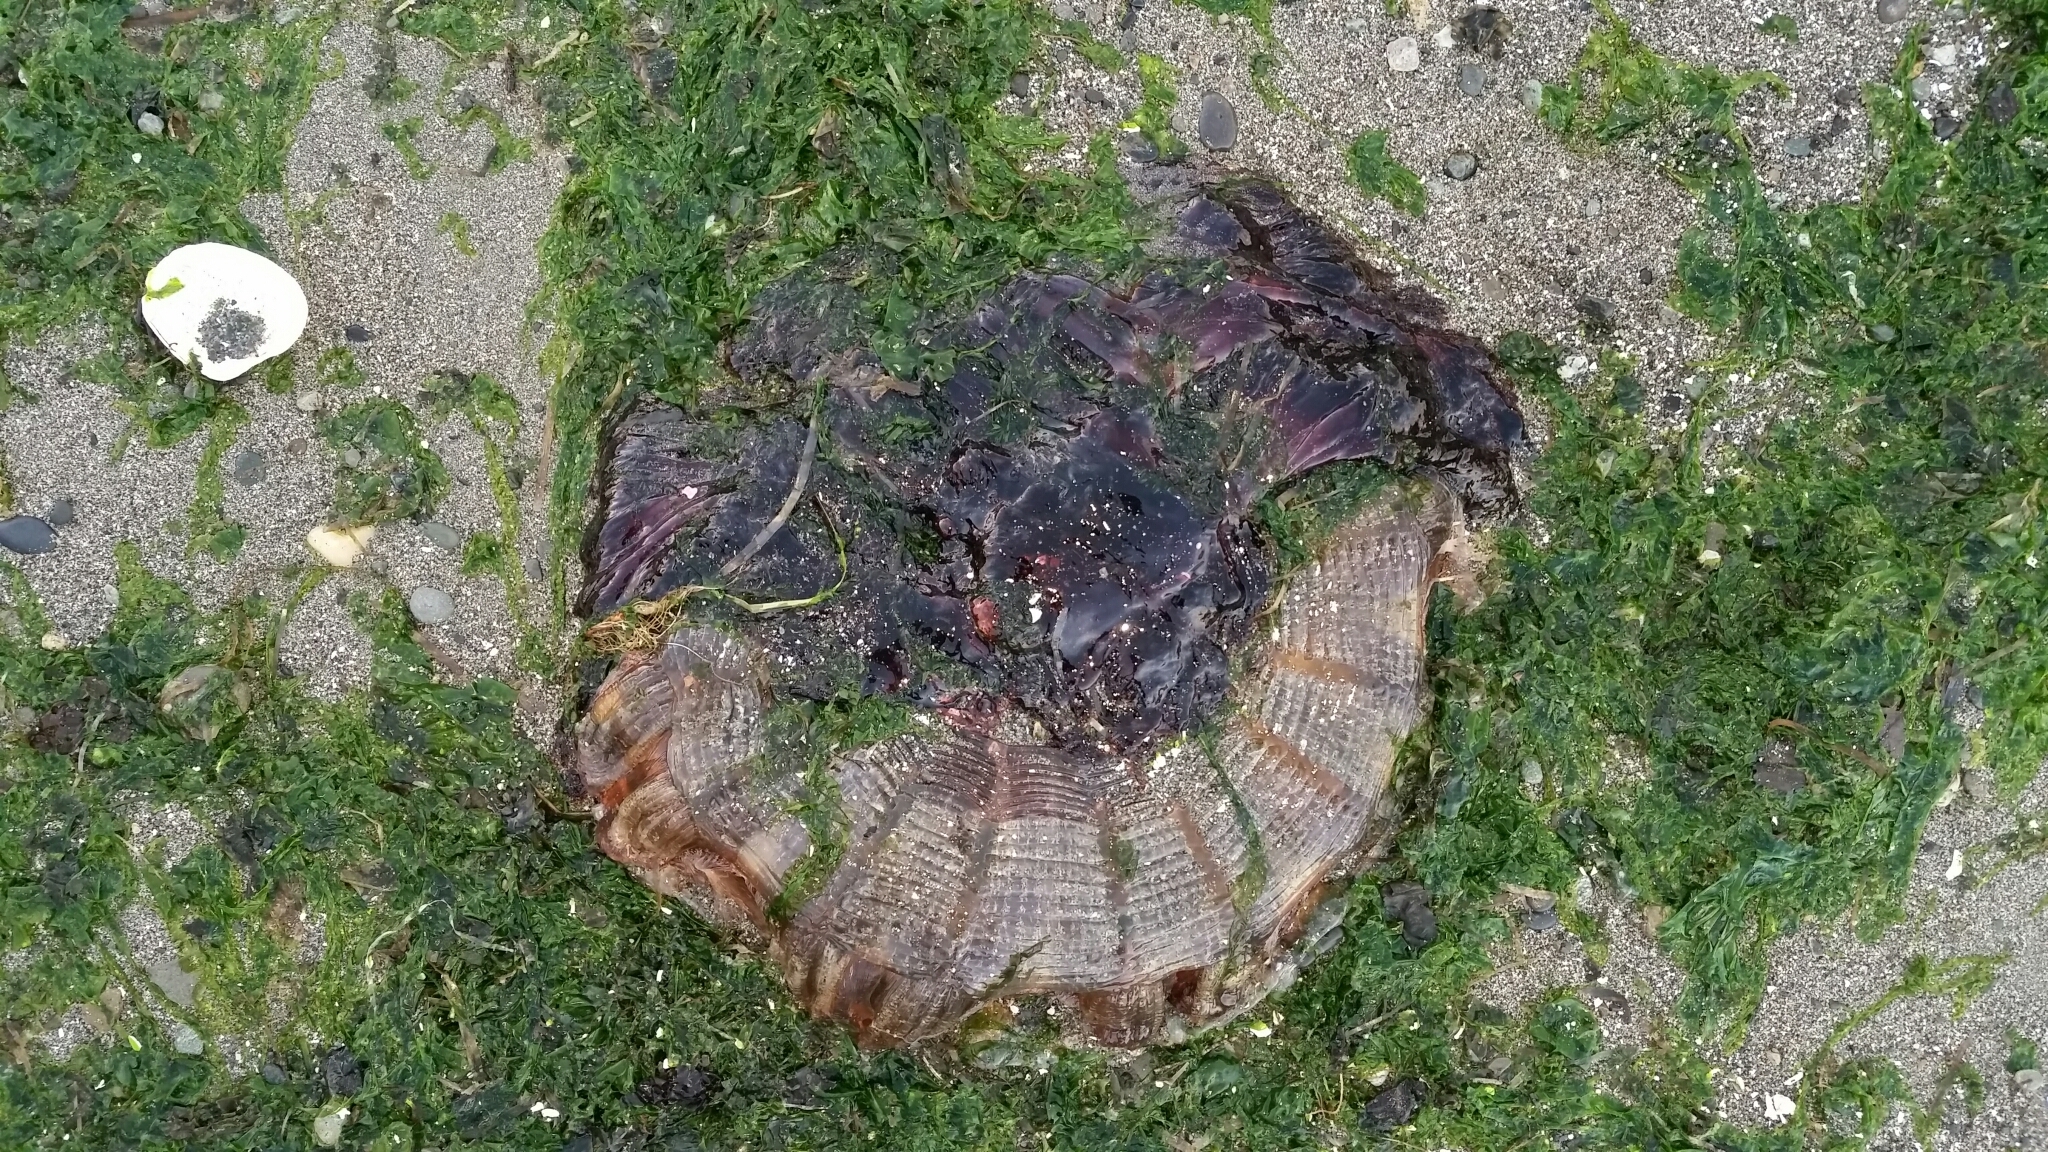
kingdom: Animalia
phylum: Cnidaria
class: Scyphozoa
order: Semaeostomeae
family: Cyaneidae
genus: Cyanea
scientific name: Cyanea ferruginea
